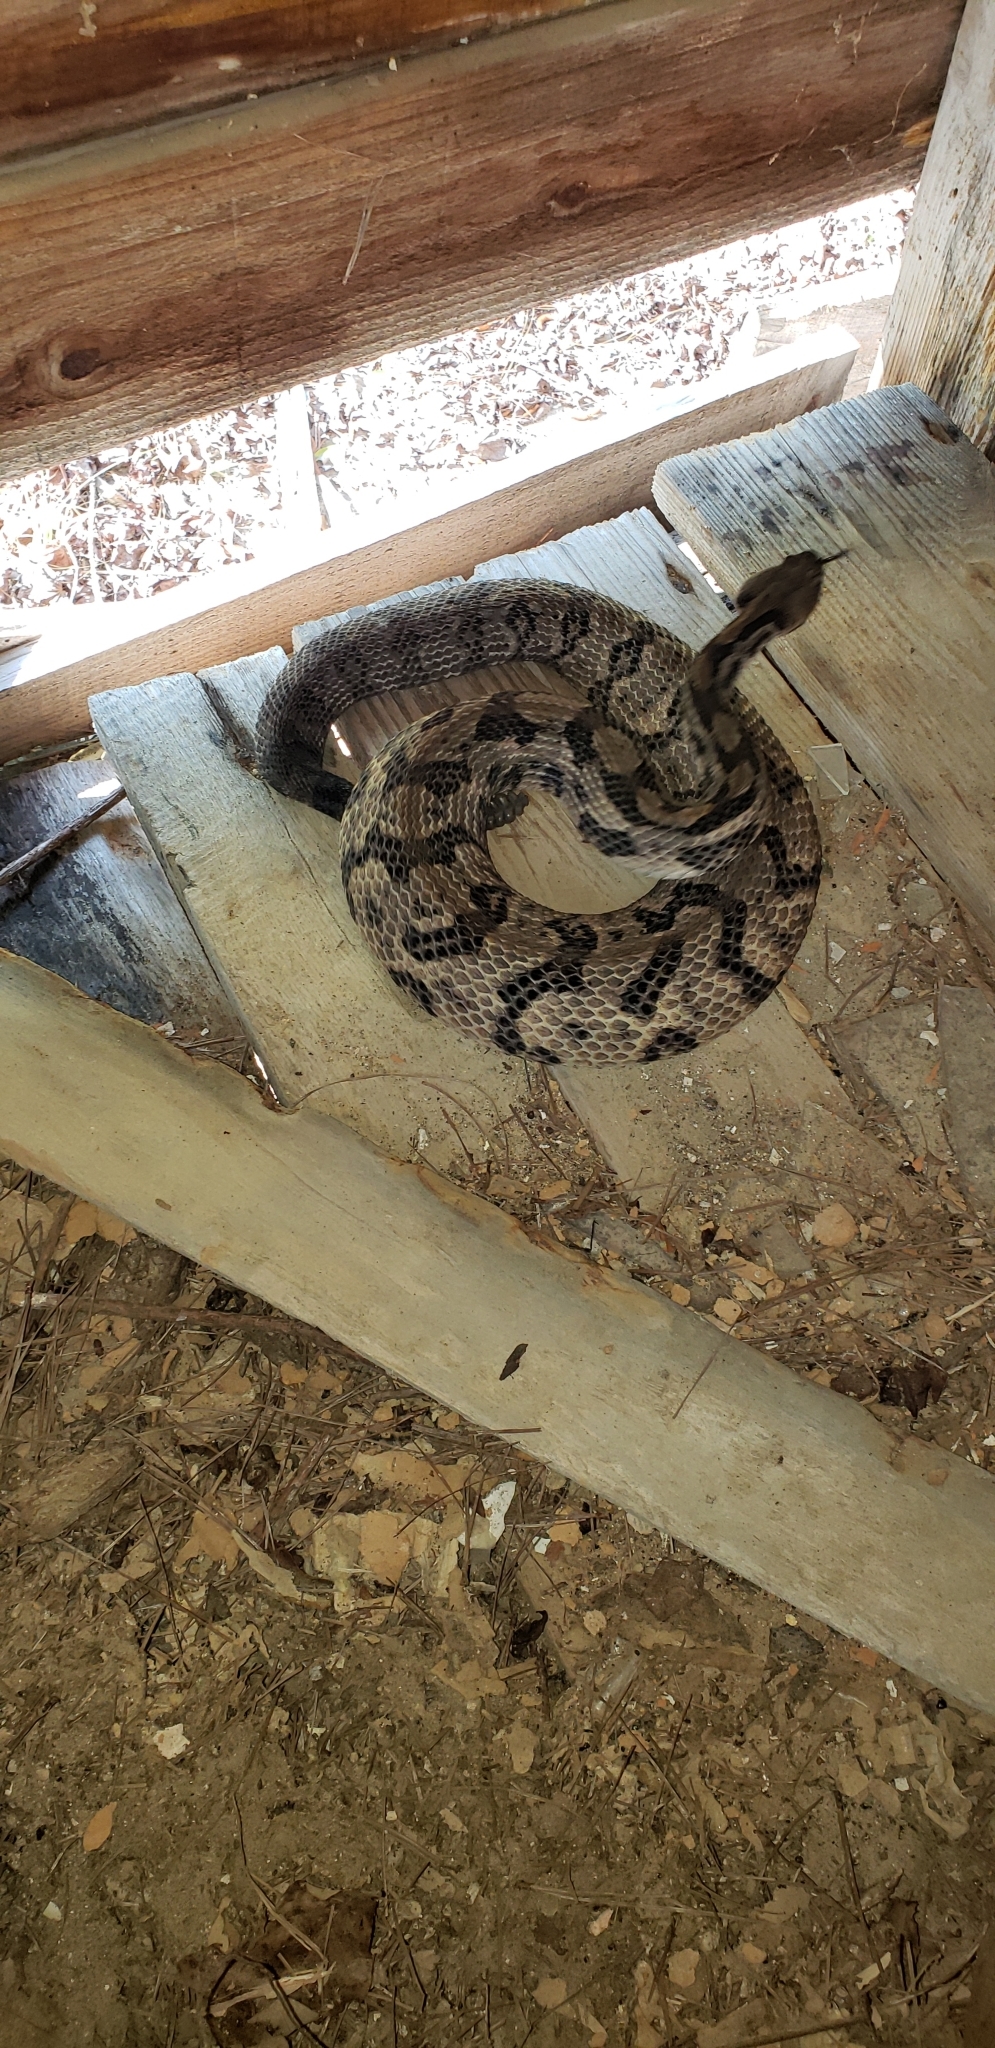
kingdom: Animalia
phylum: Chordata
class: Squamata
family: Viperidae
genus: Crotalus
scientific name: Crotalus horridus
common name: Timber rattlesnake
